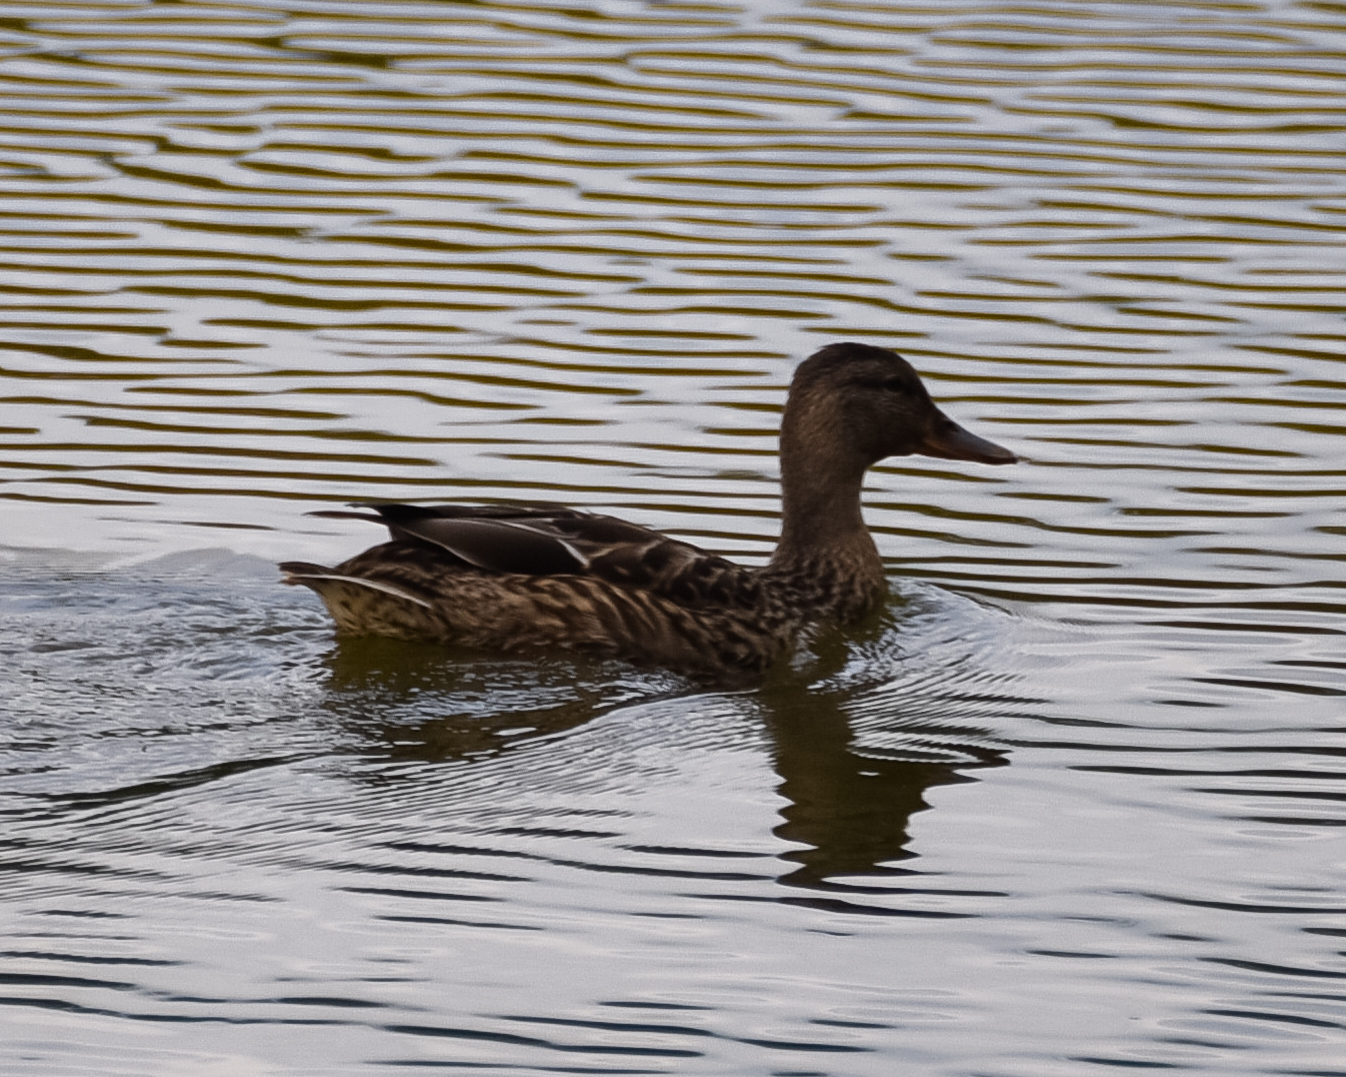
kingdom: Animalia
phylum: Chordata
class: Aves
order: Anseriformes
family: Anatidae
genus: Anas
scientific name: Anas platyrhynchos
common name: Mallard
